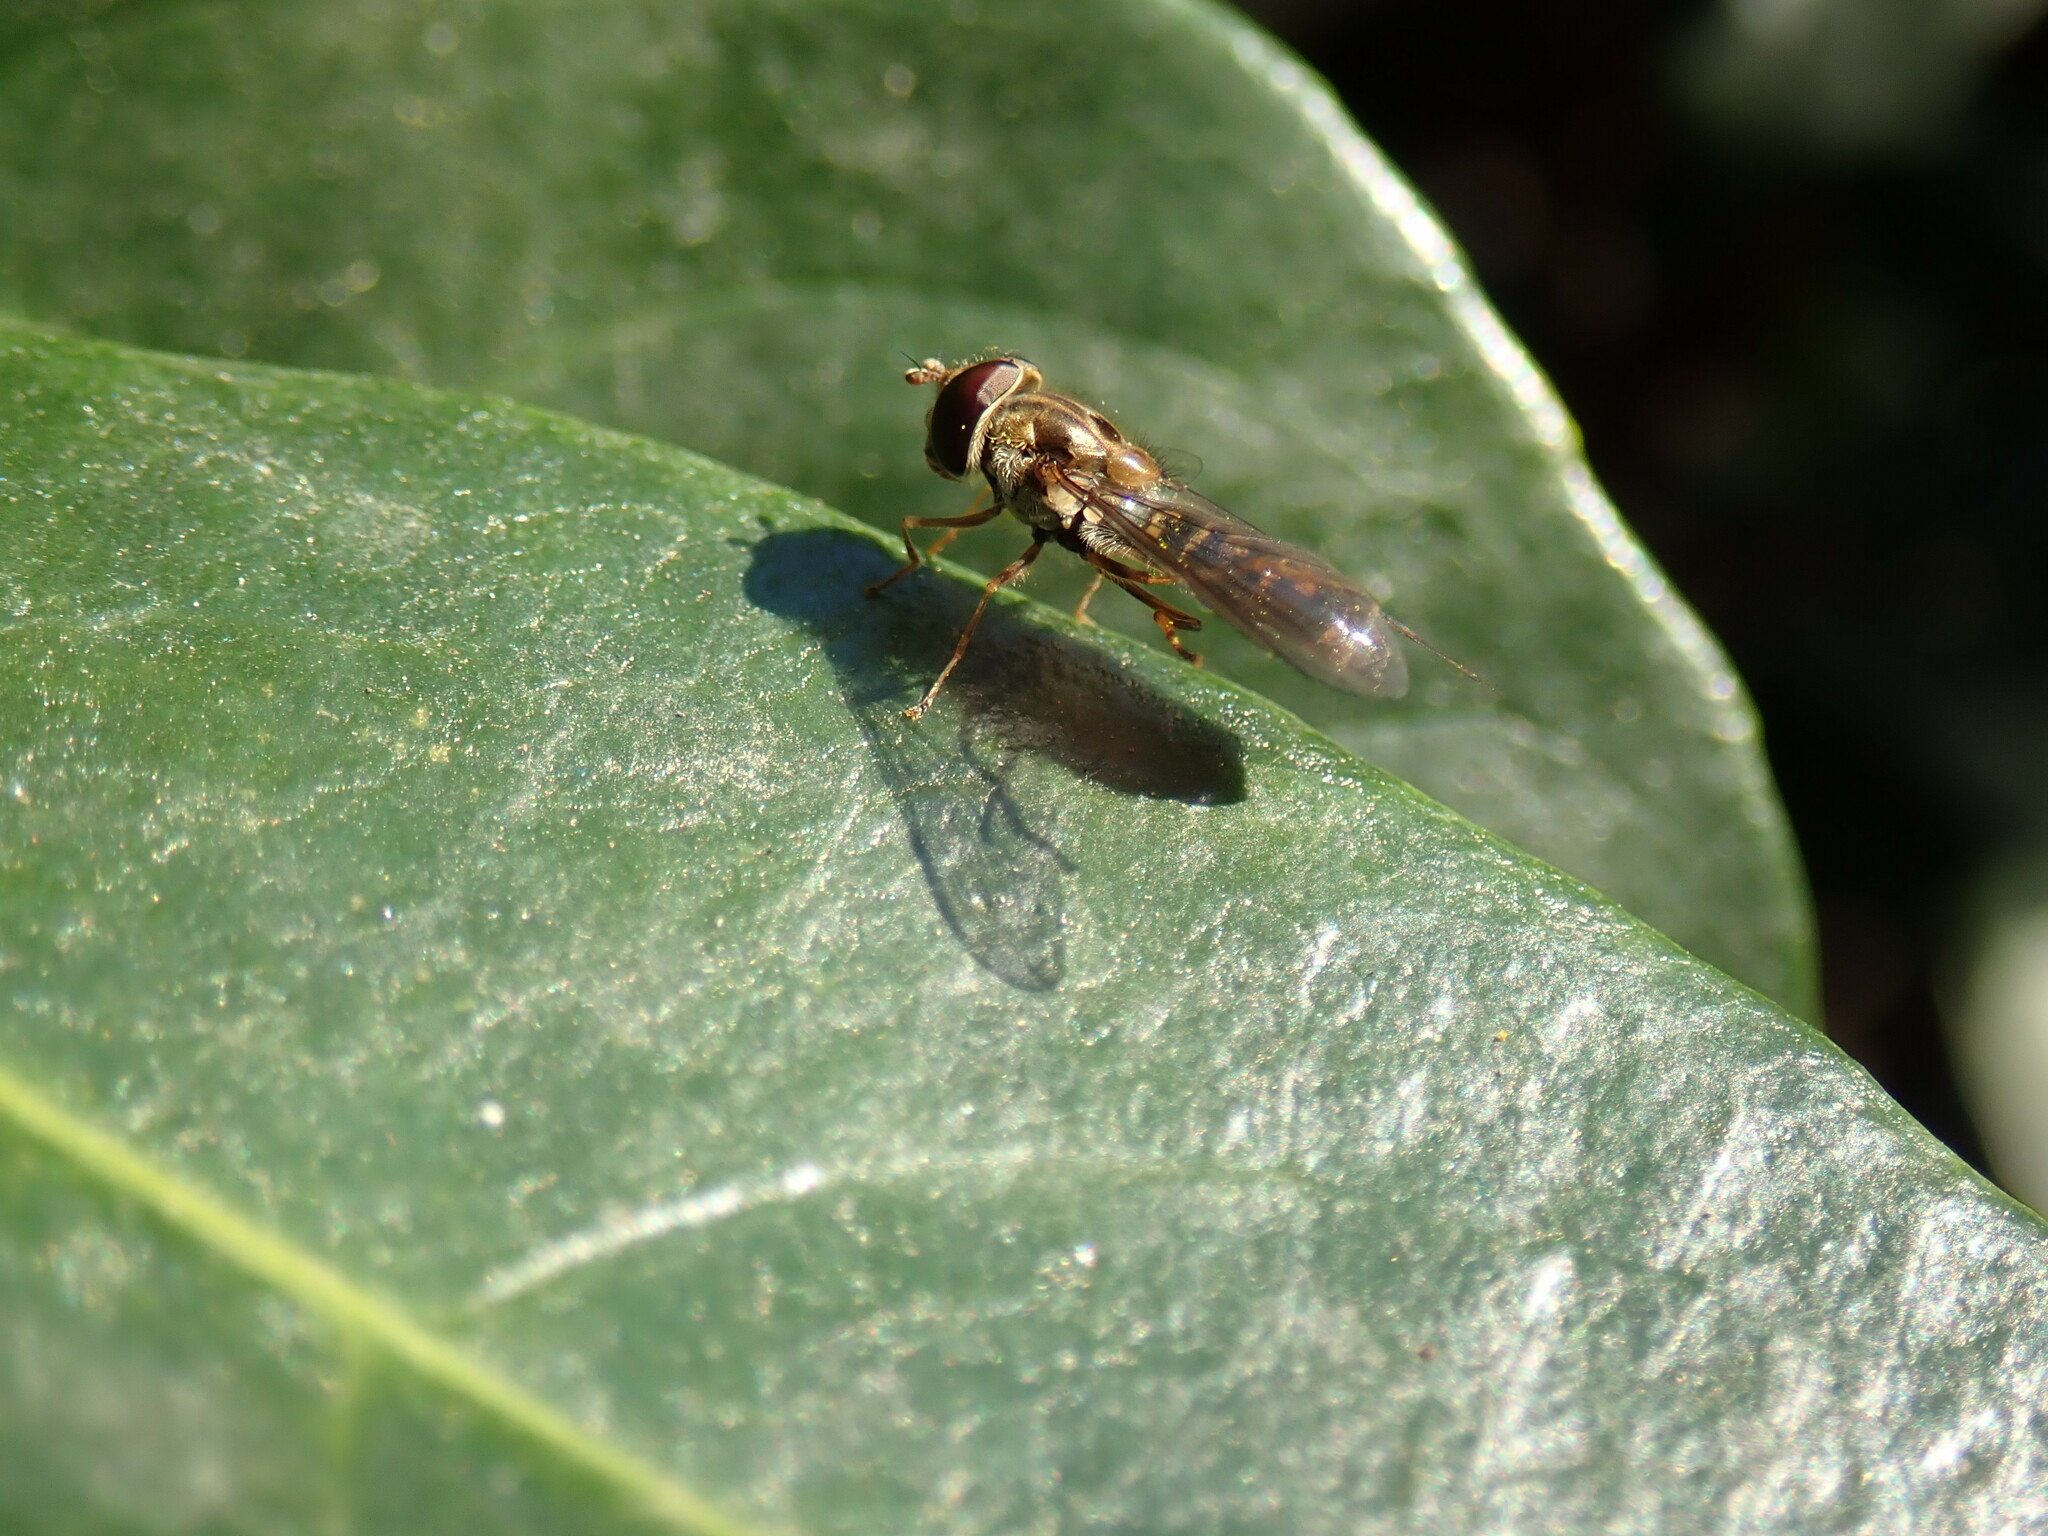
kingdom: Animalia
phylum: Arthropoda
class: Insecta
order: Diptera
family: Syrphidae
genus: Episyrphus
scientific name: Episyrphus balteatus
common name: Marmalade hoverfly
